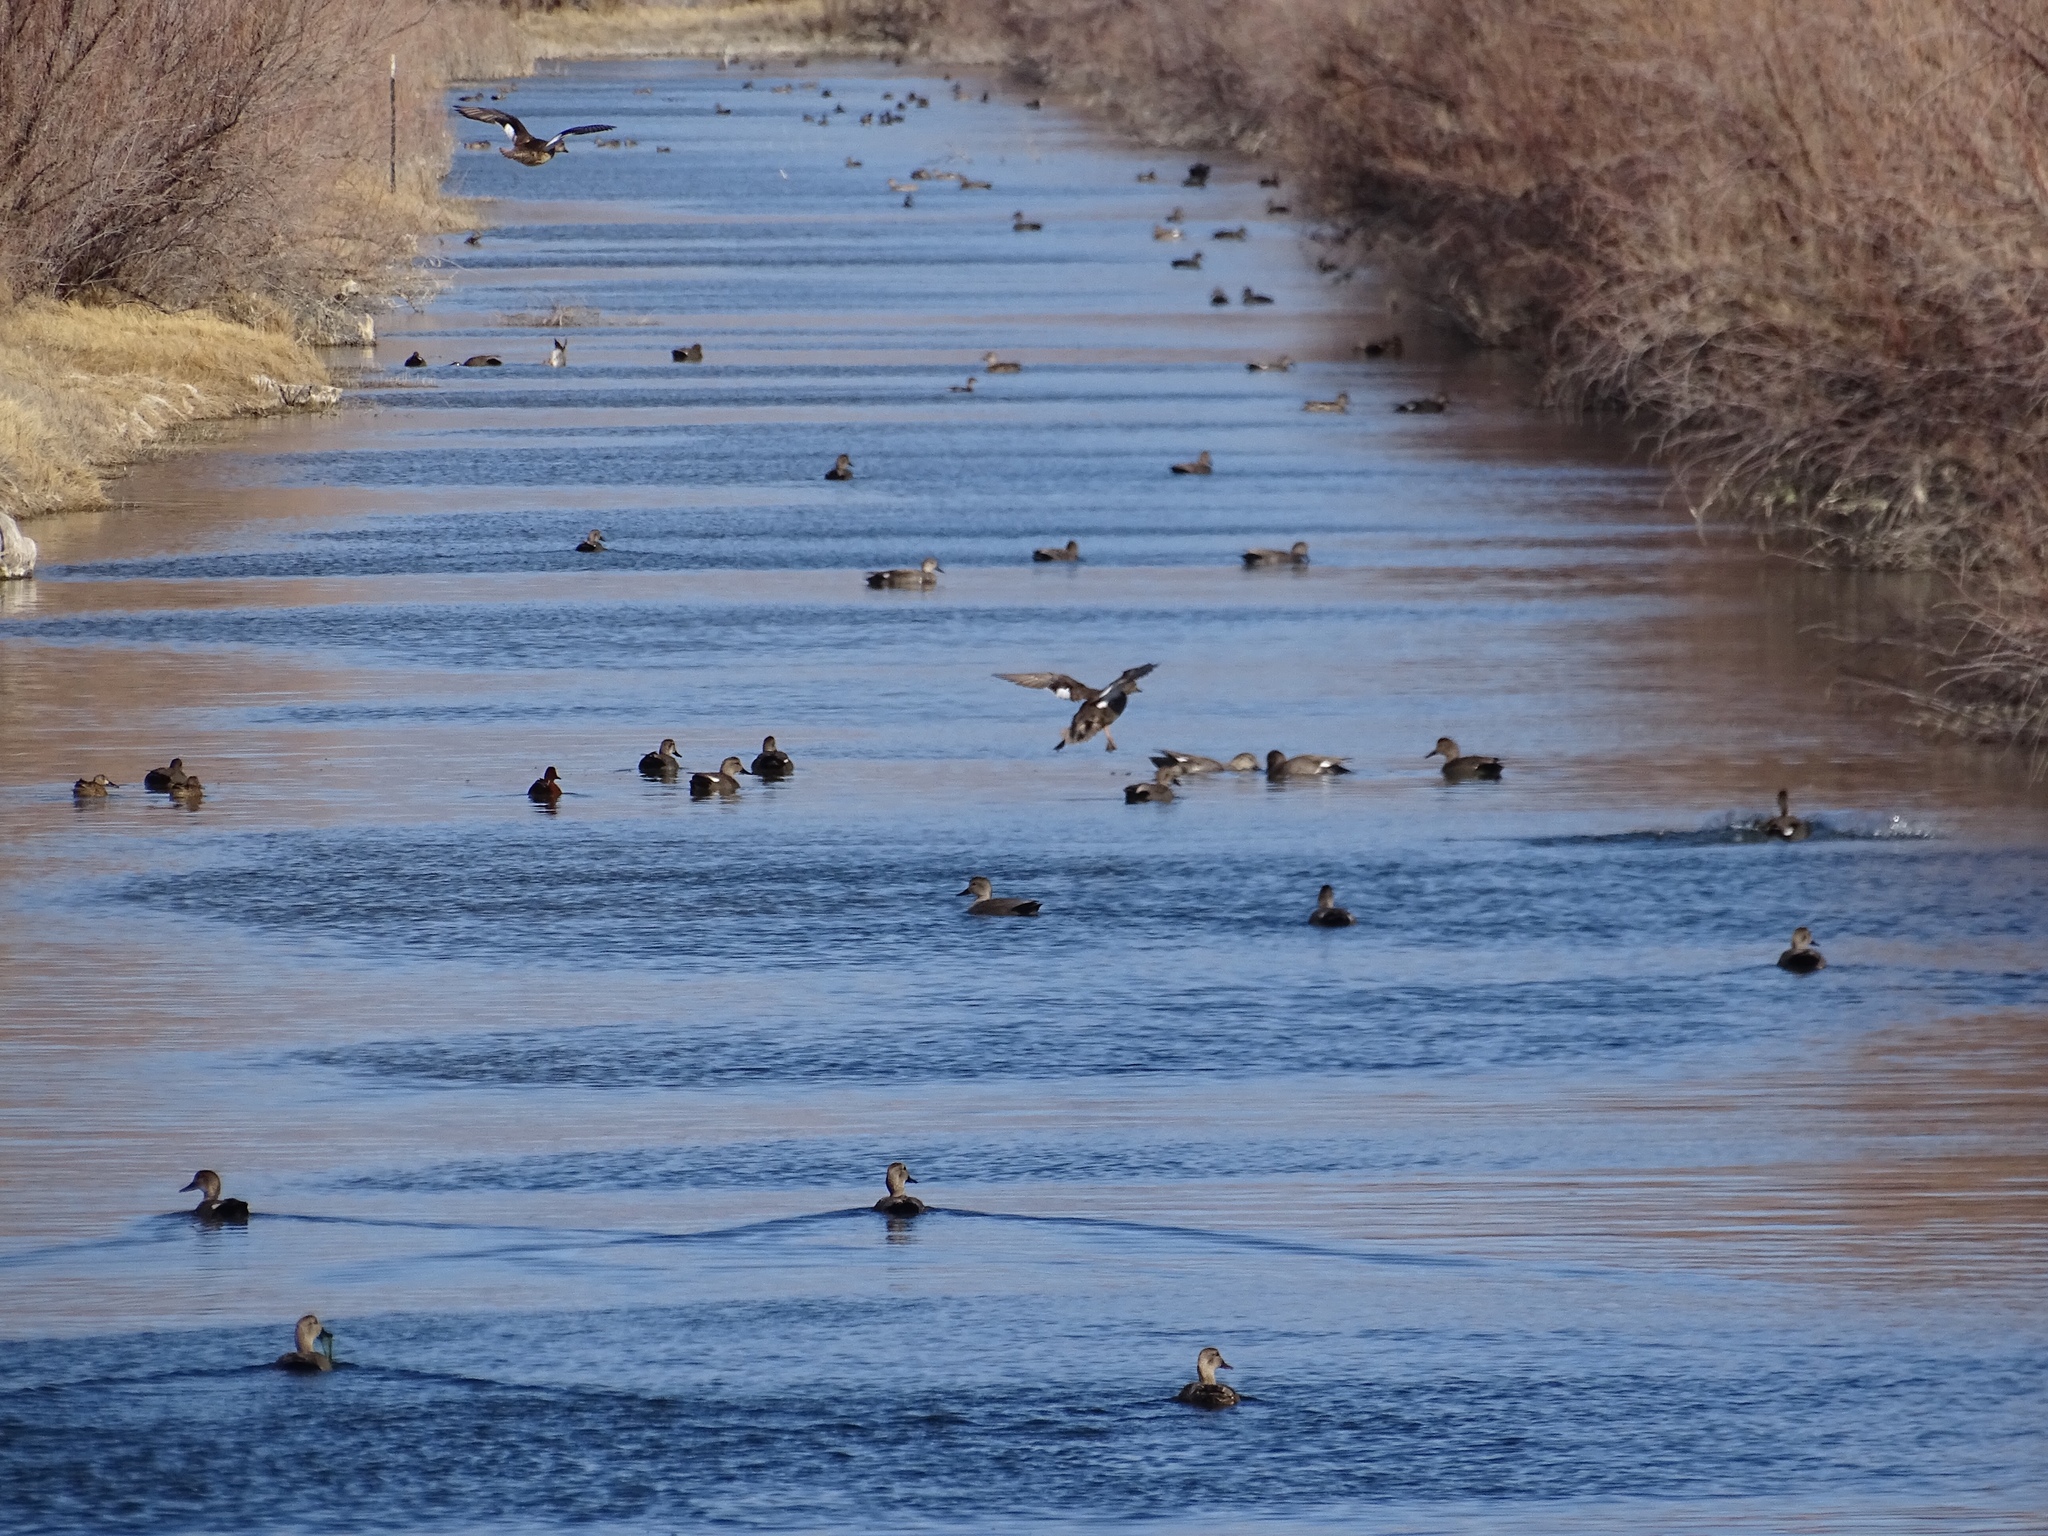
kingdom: Animalia
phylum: Chordata
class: Aves
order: Anseriformes
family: Anatidae
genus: Mareca
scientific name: Mareca strepera
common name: Gadwall
